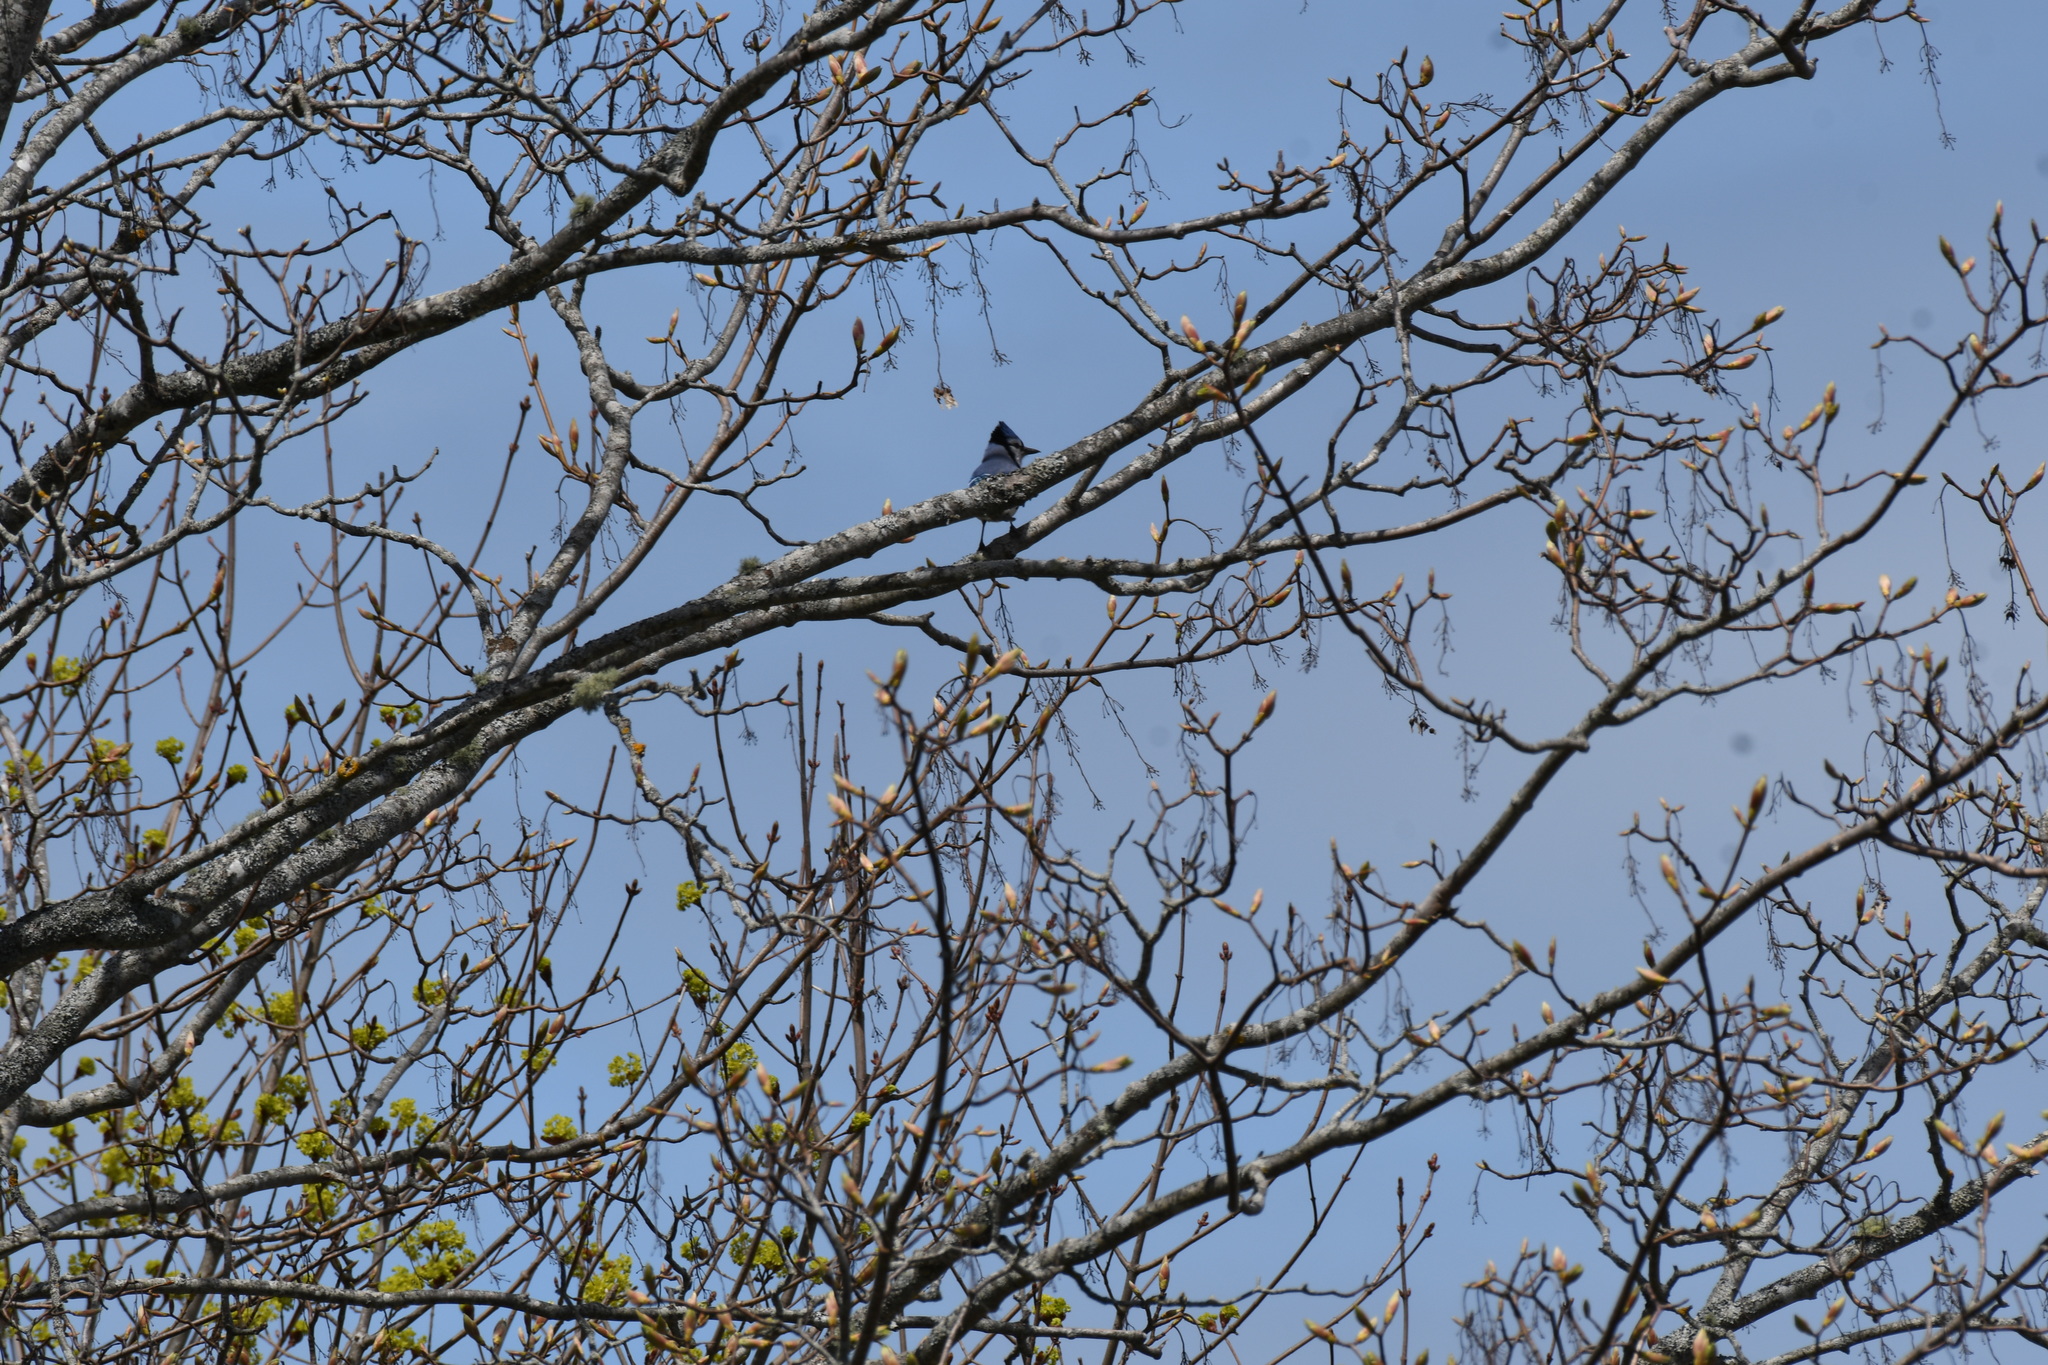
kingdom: Animalia
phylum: Chordata
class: Aves
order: Passeriformes
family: Corvidae
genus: Cyanocitta
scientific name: Cyanocitta cristata
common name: Blue jay
